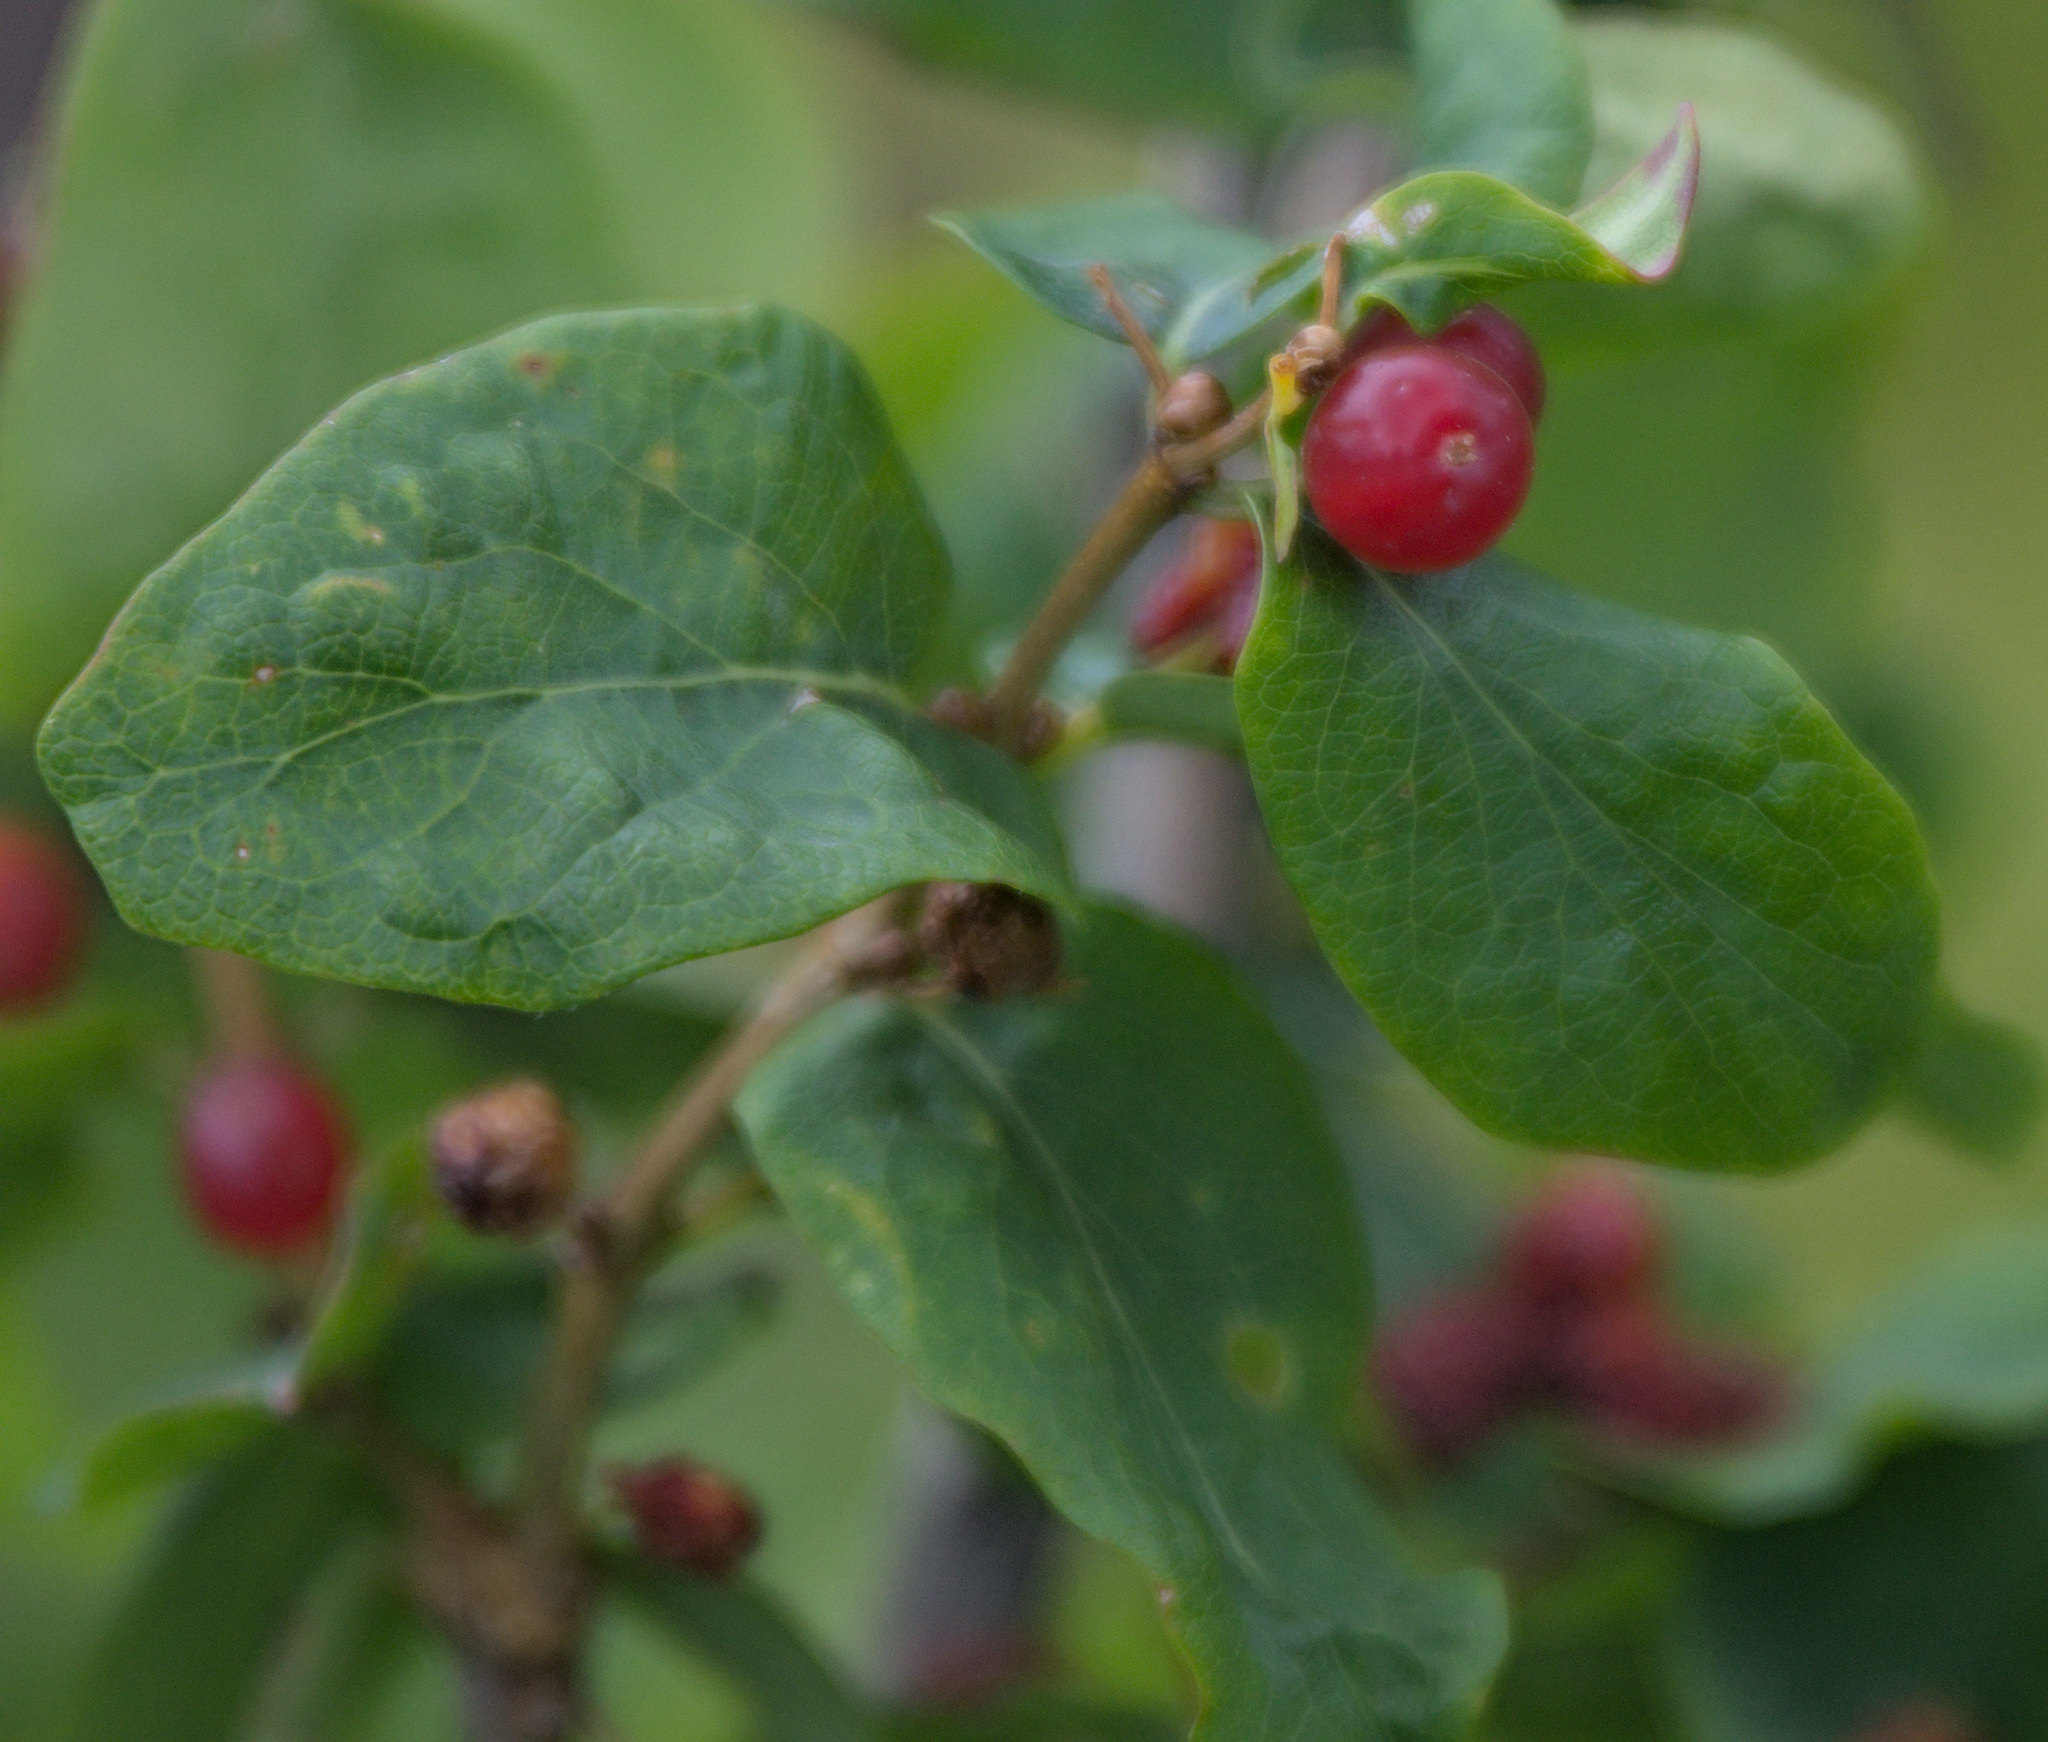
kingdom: Plantae
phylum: Tracheophyta
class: Magnoliopsida
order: Dipsacales
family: Caprifoliaceae
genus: Lonicera
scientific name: Lonicera tatarica
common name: Tatarian honeysuckle
